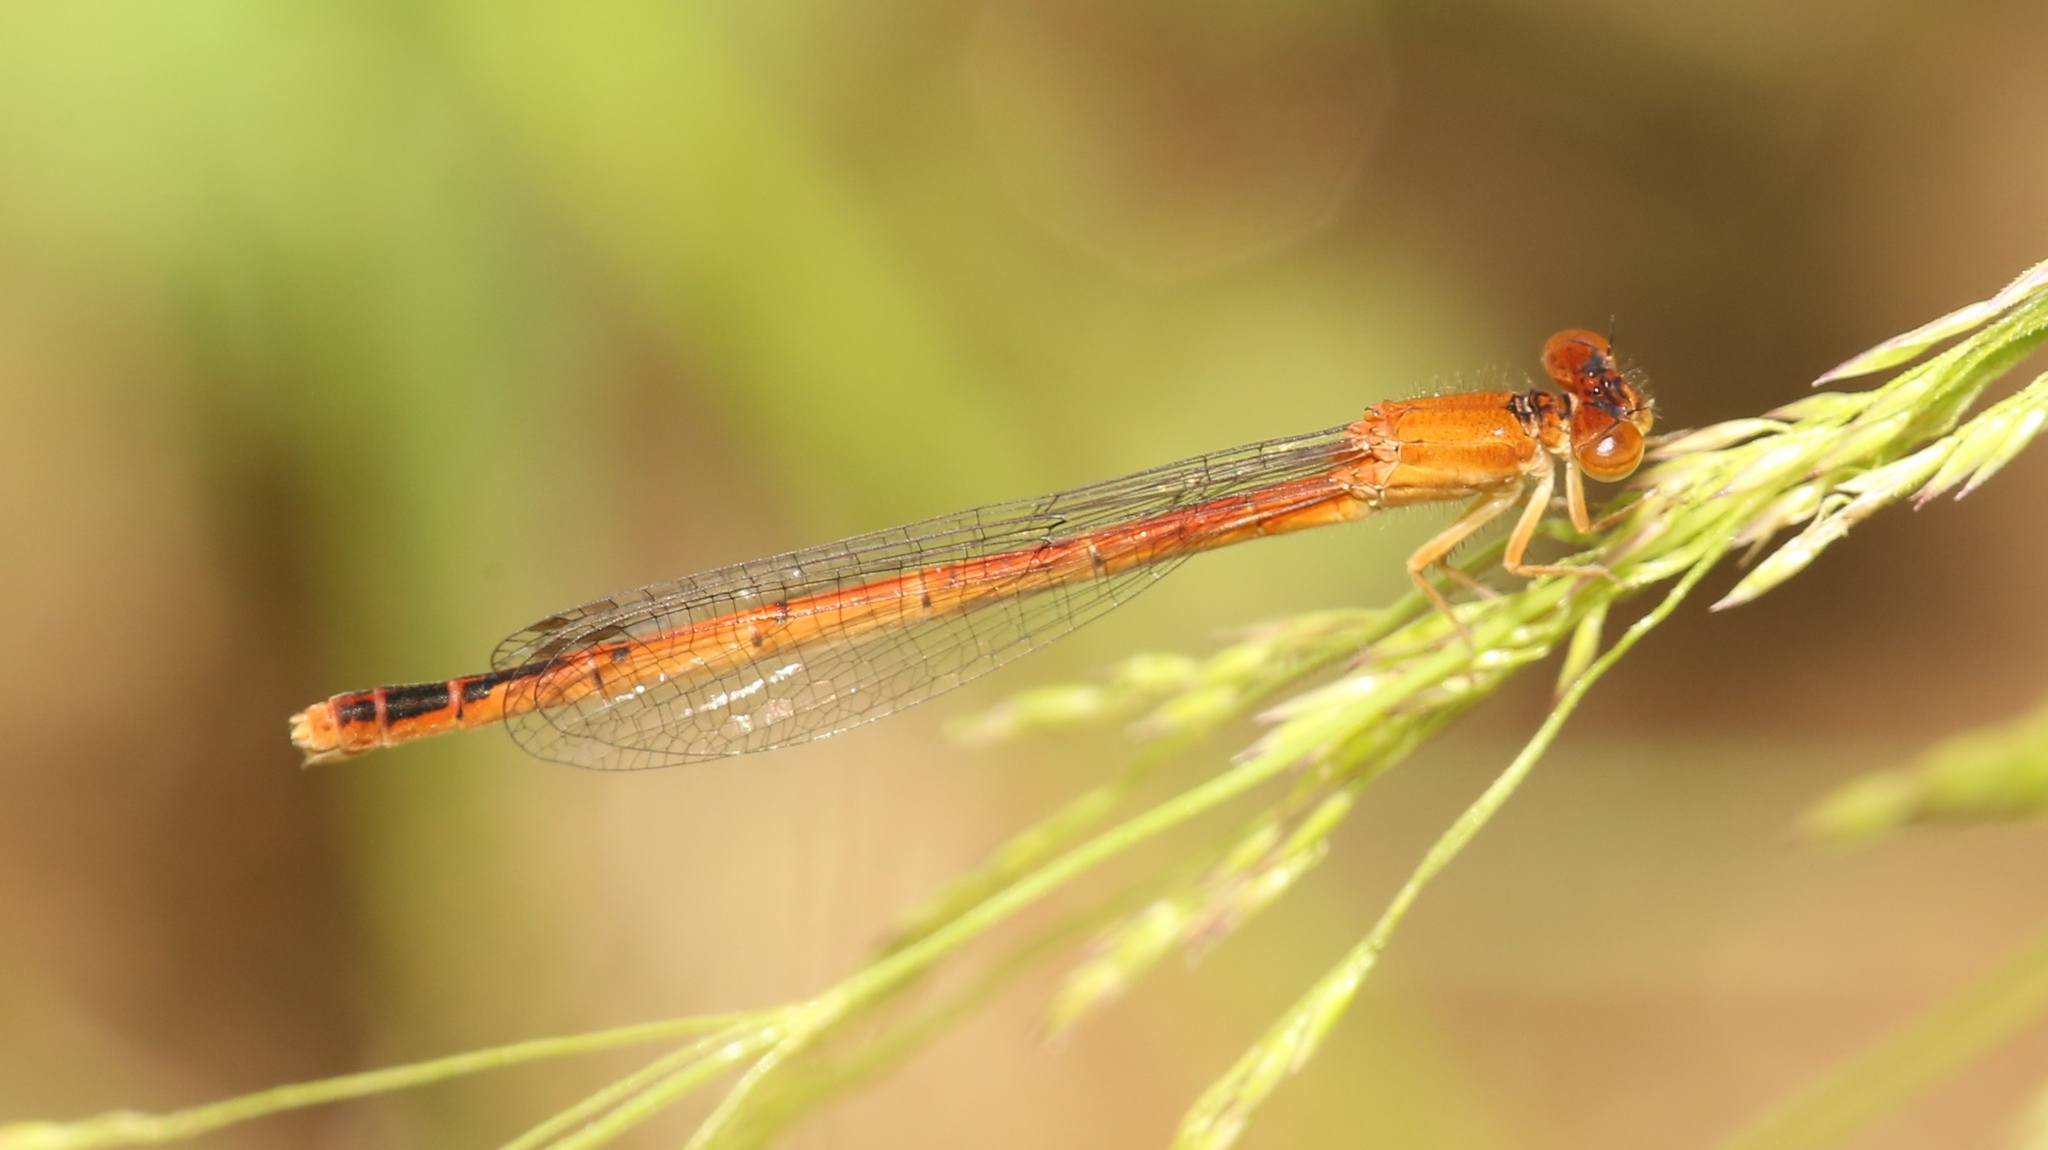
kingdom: Animalia
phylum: Arthropoda
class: Insecta
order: Odonata
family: Coenagrionidae
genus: Amphiagrion
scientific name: Amphiagrion saucium
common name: Eastern red damsel
